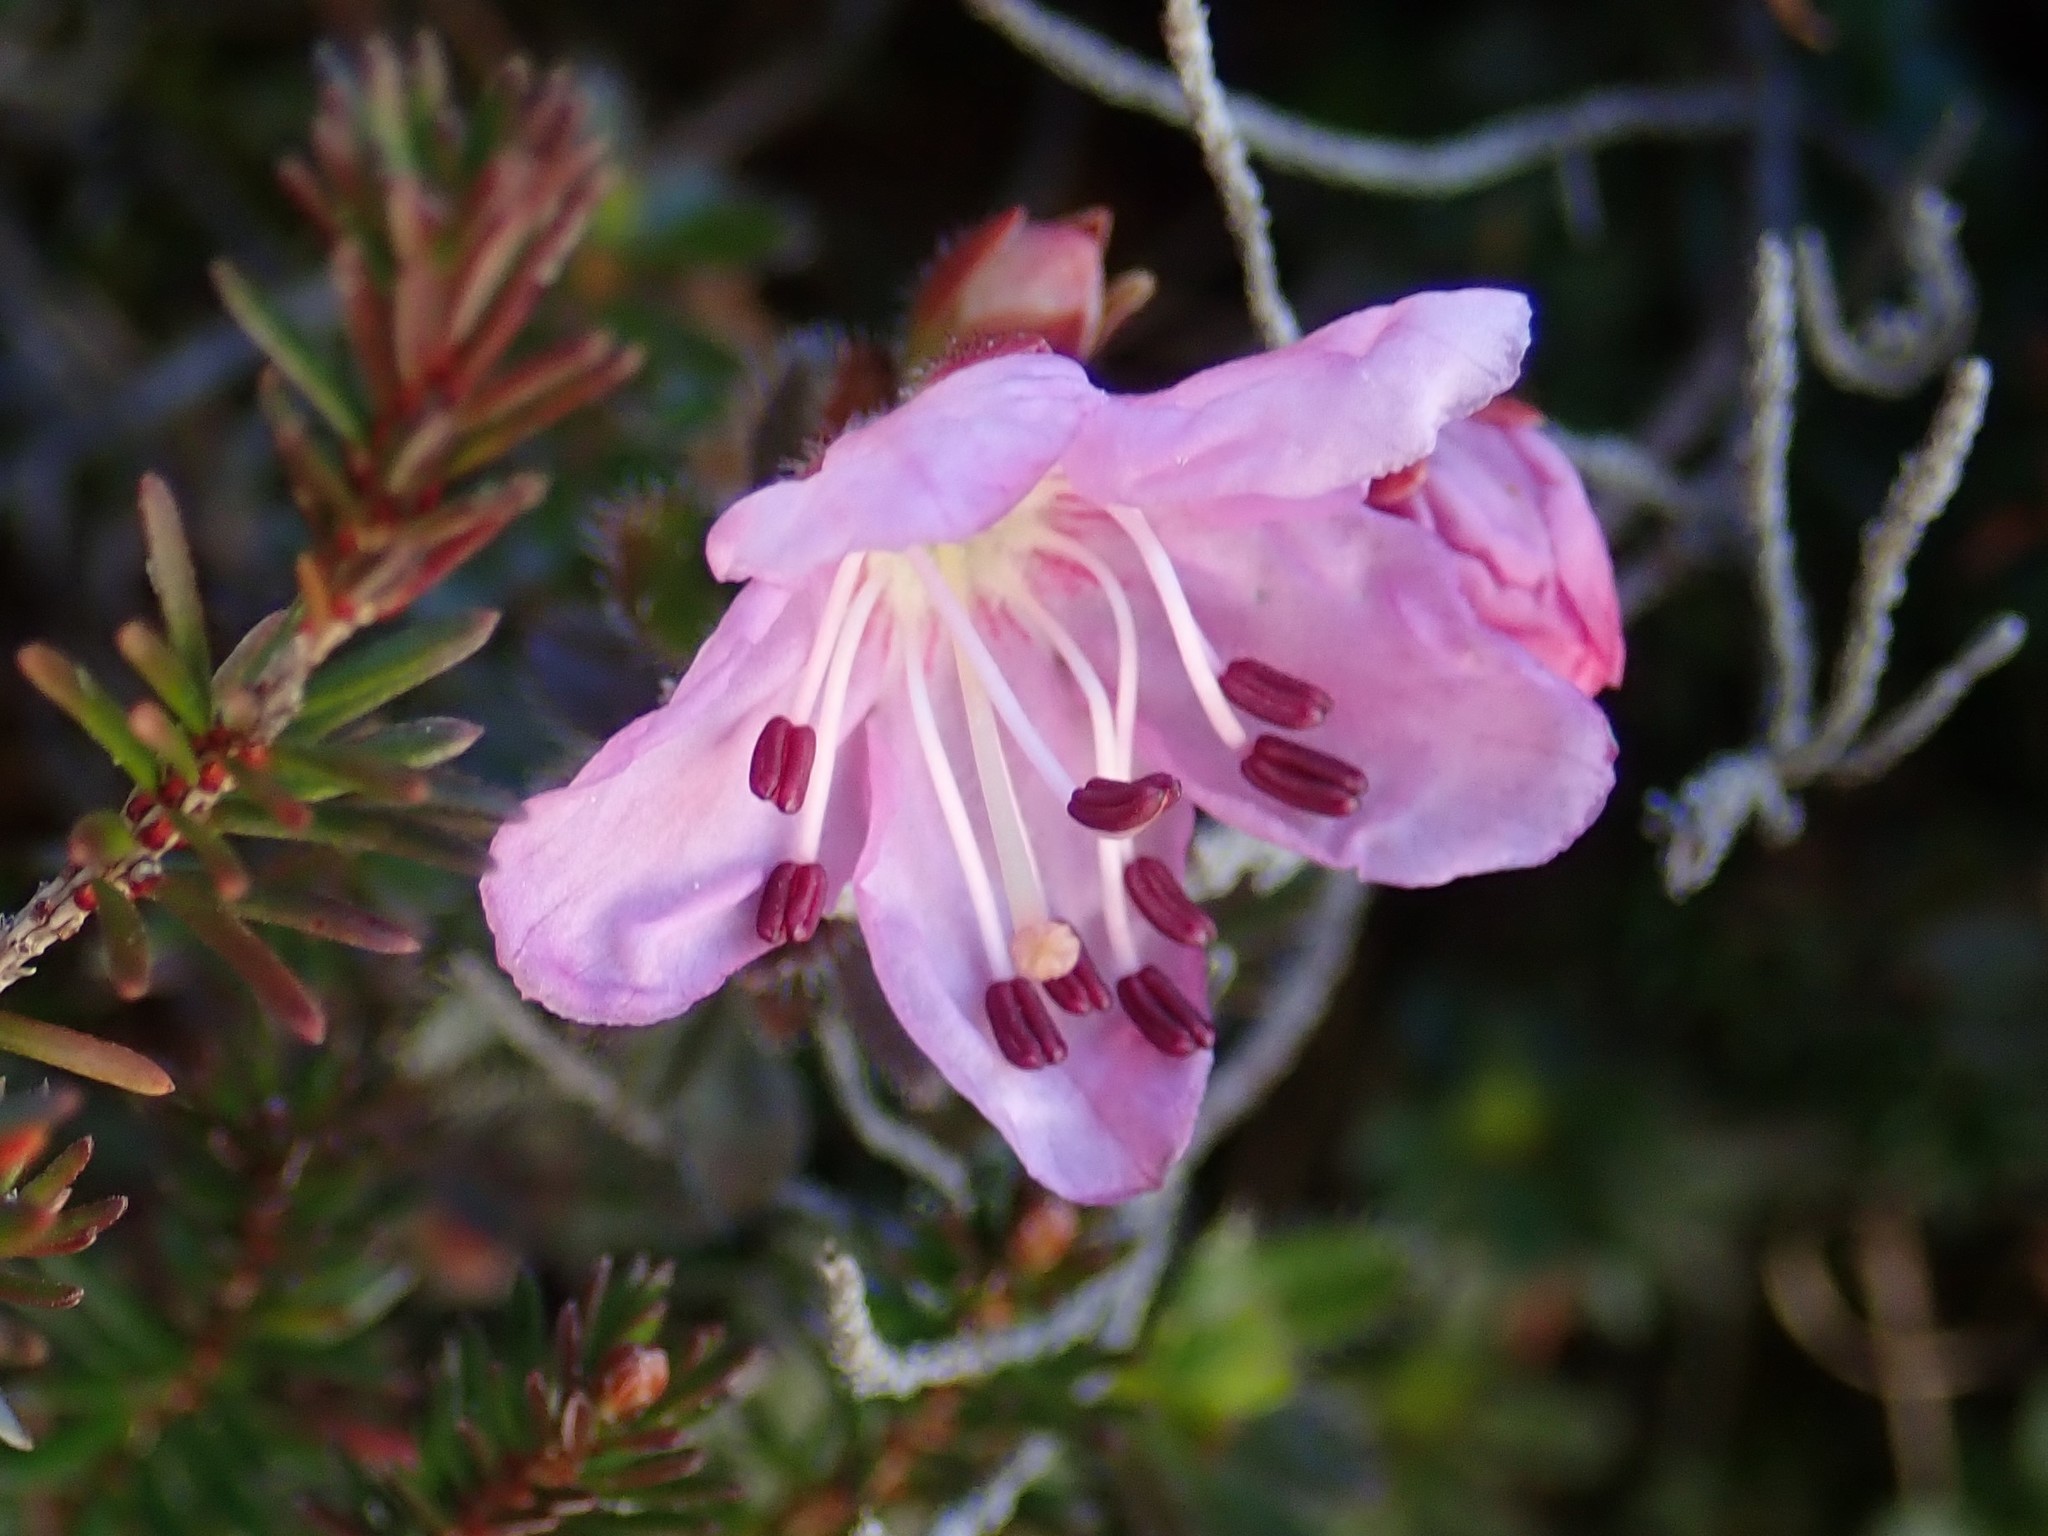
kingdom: Plantae
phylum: Tracheophyta
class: Magnoliopsida
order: Ericales
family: Ericaceae
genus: Rhodothamnus
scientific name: Rhodothamnus chamaecistus
